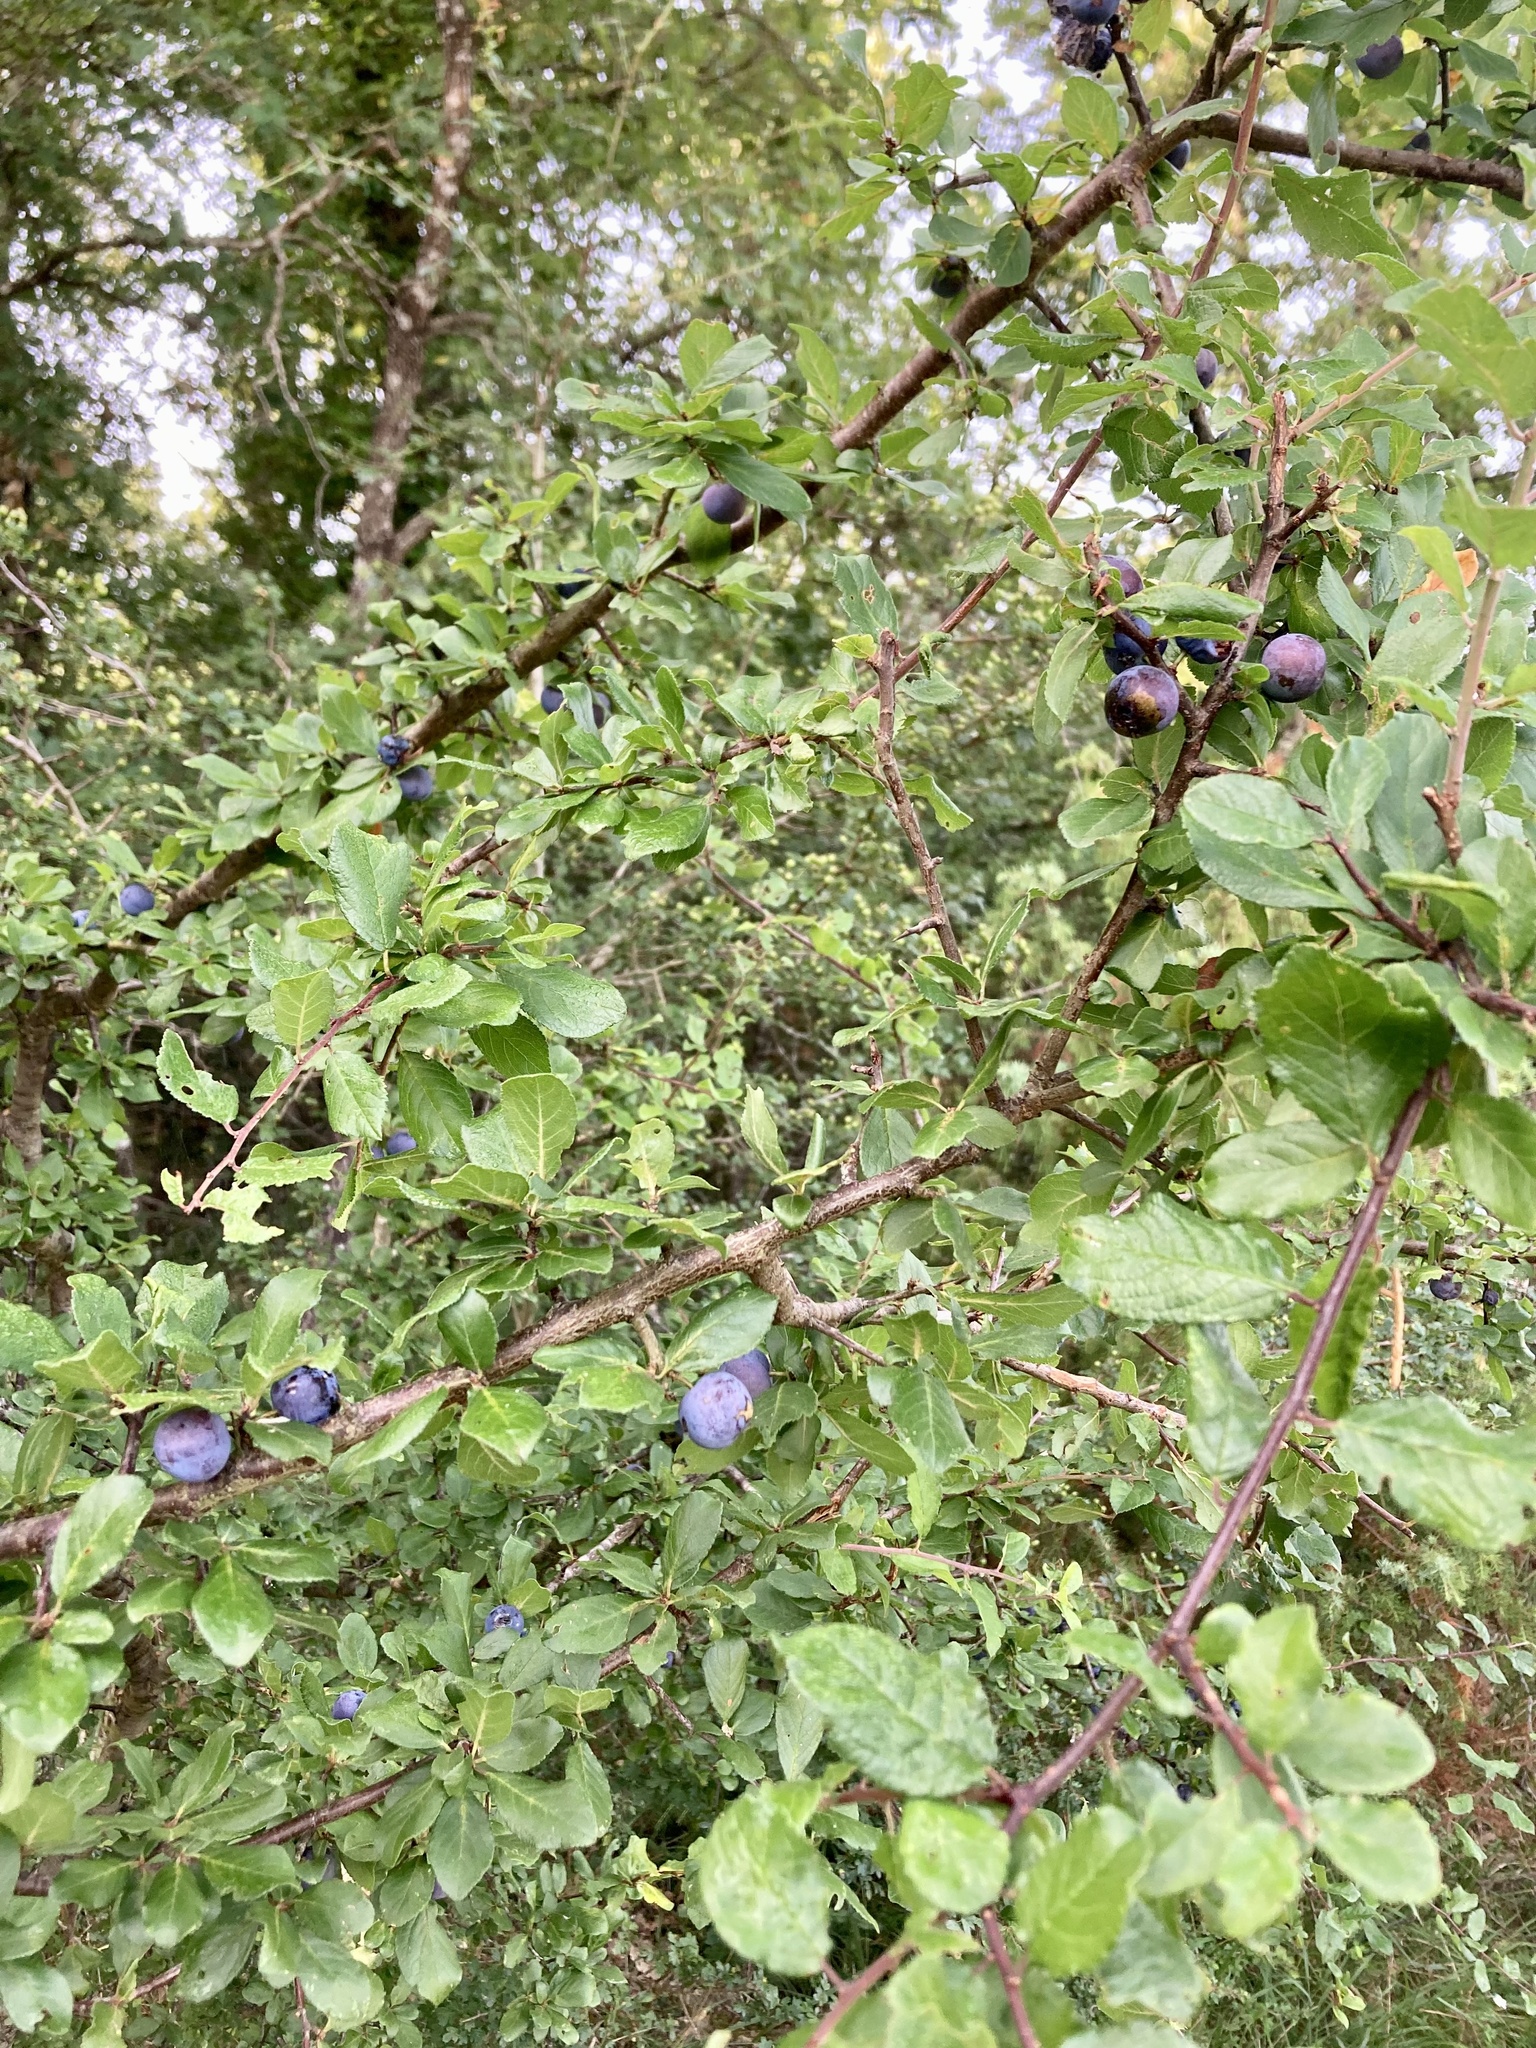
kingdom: Plantae
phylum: Tracheophyta
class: Magnoliopsida
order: Rosales
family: Rosaceae
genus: Prunus
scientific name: Prunus spinosa
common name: Blackthorn
